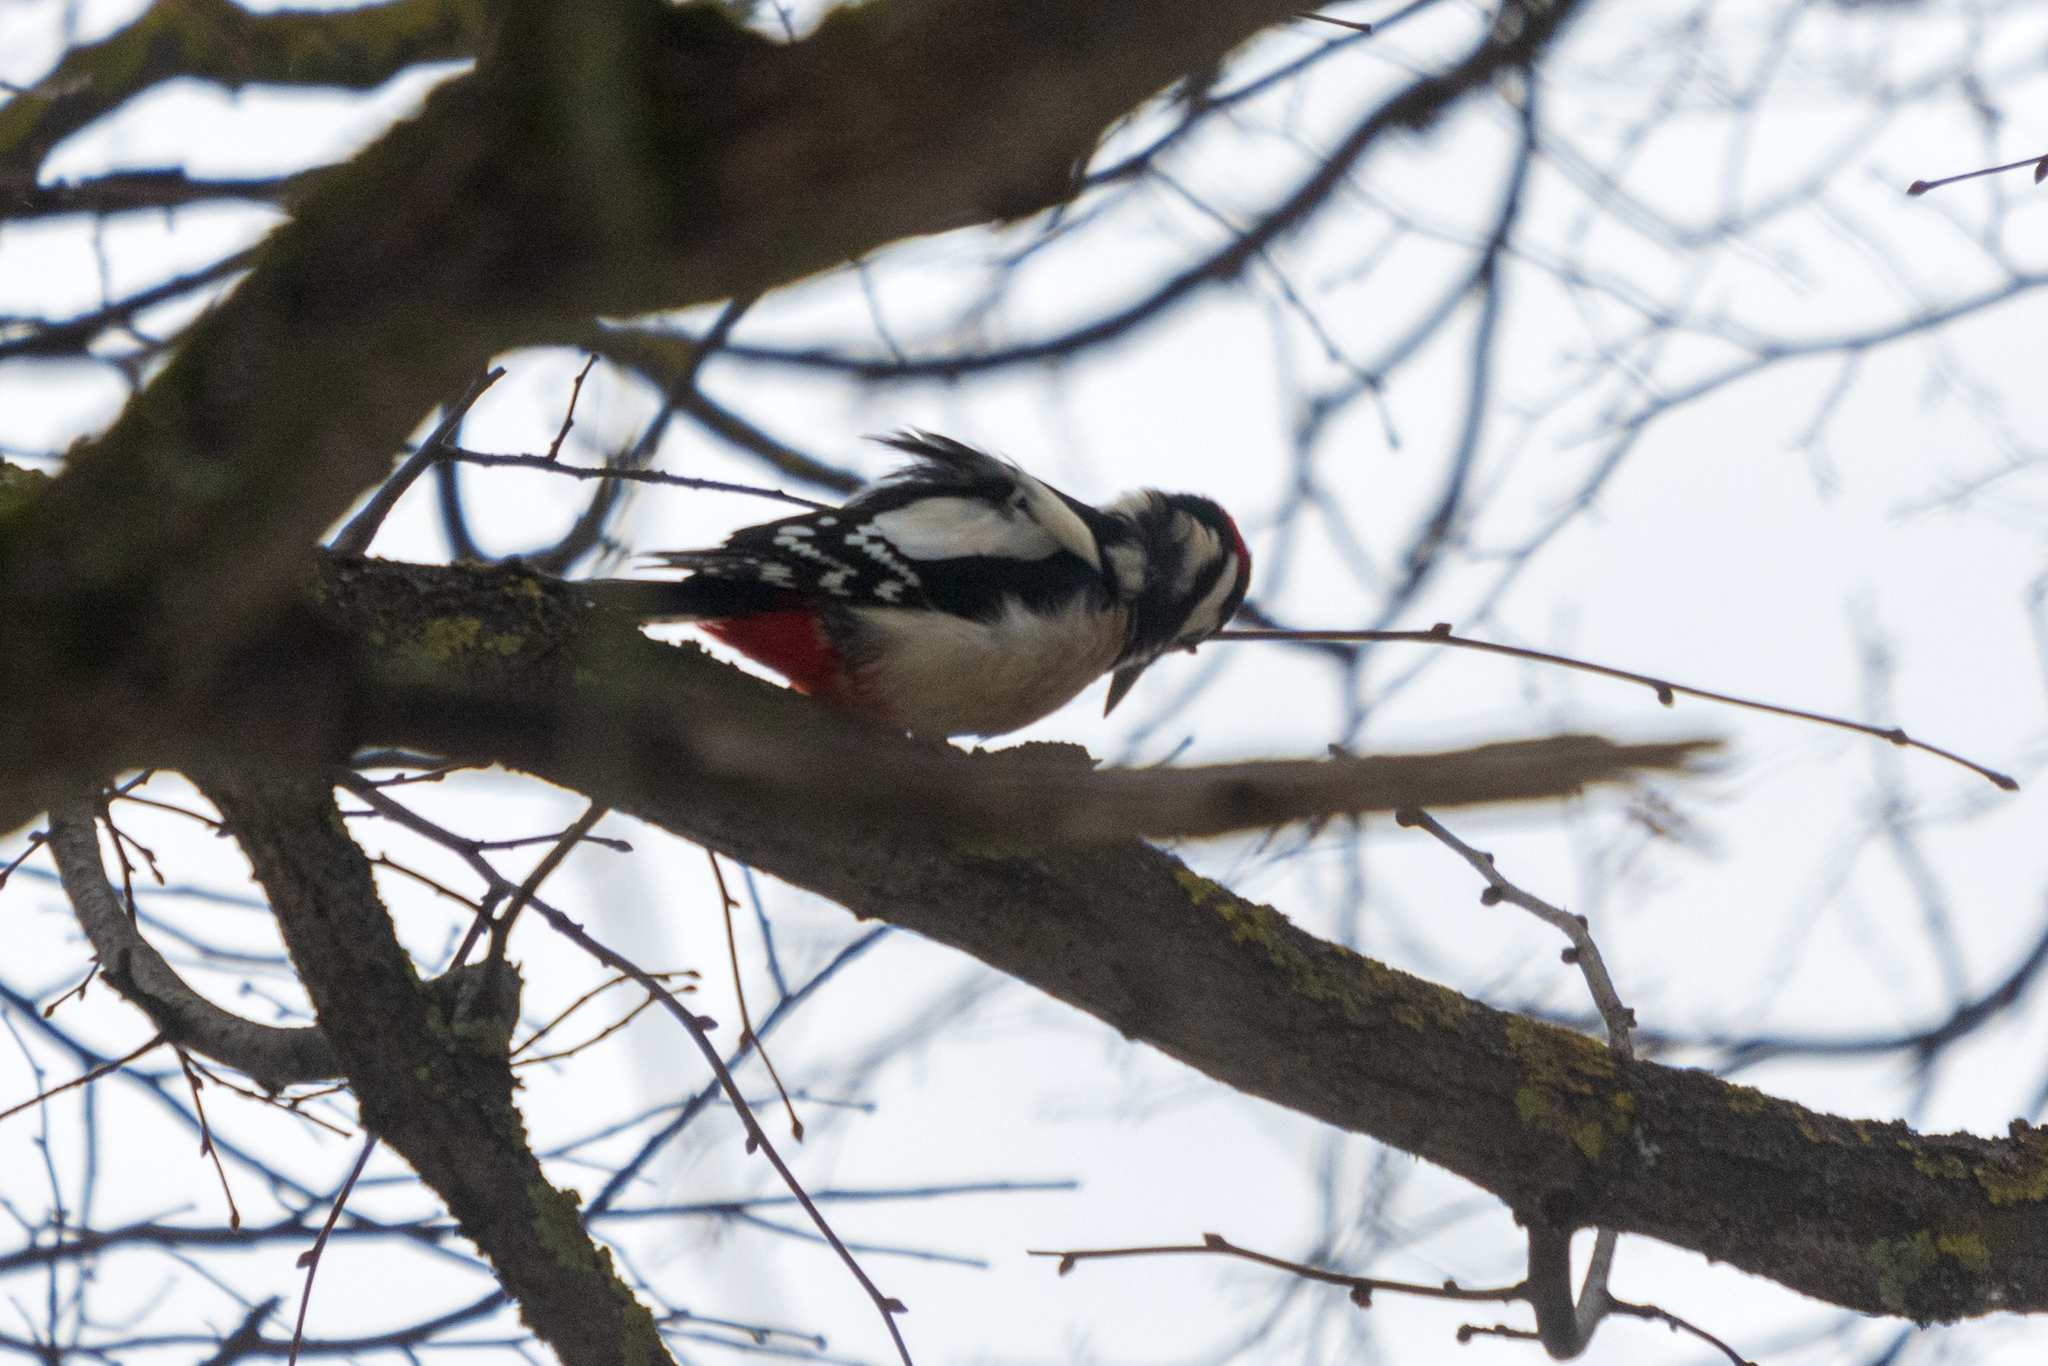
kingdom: Animalia
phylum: Chordata
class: Aves
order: Piciformes
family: Picidae
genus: Dendrocopos
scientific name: Dendrocopos major
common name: Great spotted woodpecker
